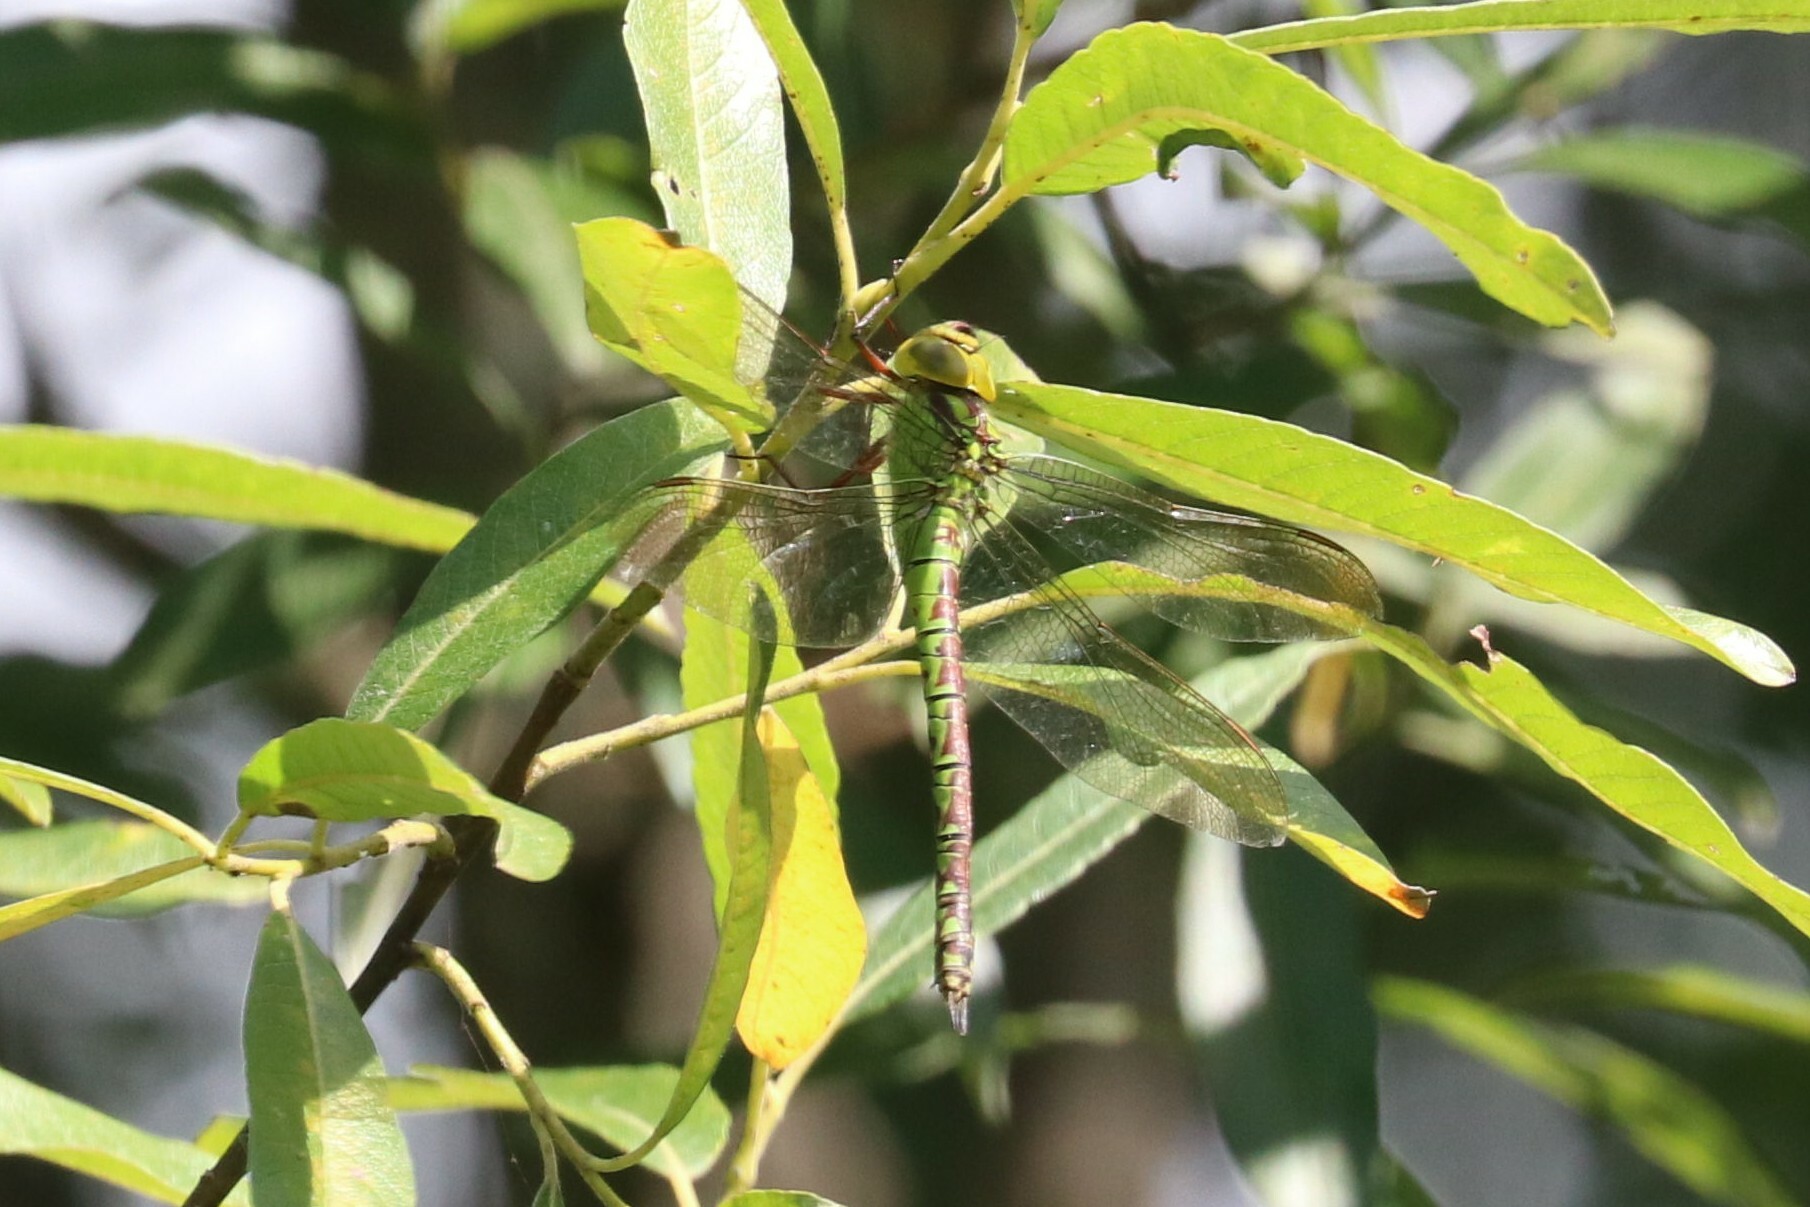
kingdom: Animalia
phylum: Arthropoda
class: Insecta
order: Odonata
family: Aeshnidae
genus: Aeshna
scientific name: Aeshna viridis
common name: Green hawker
